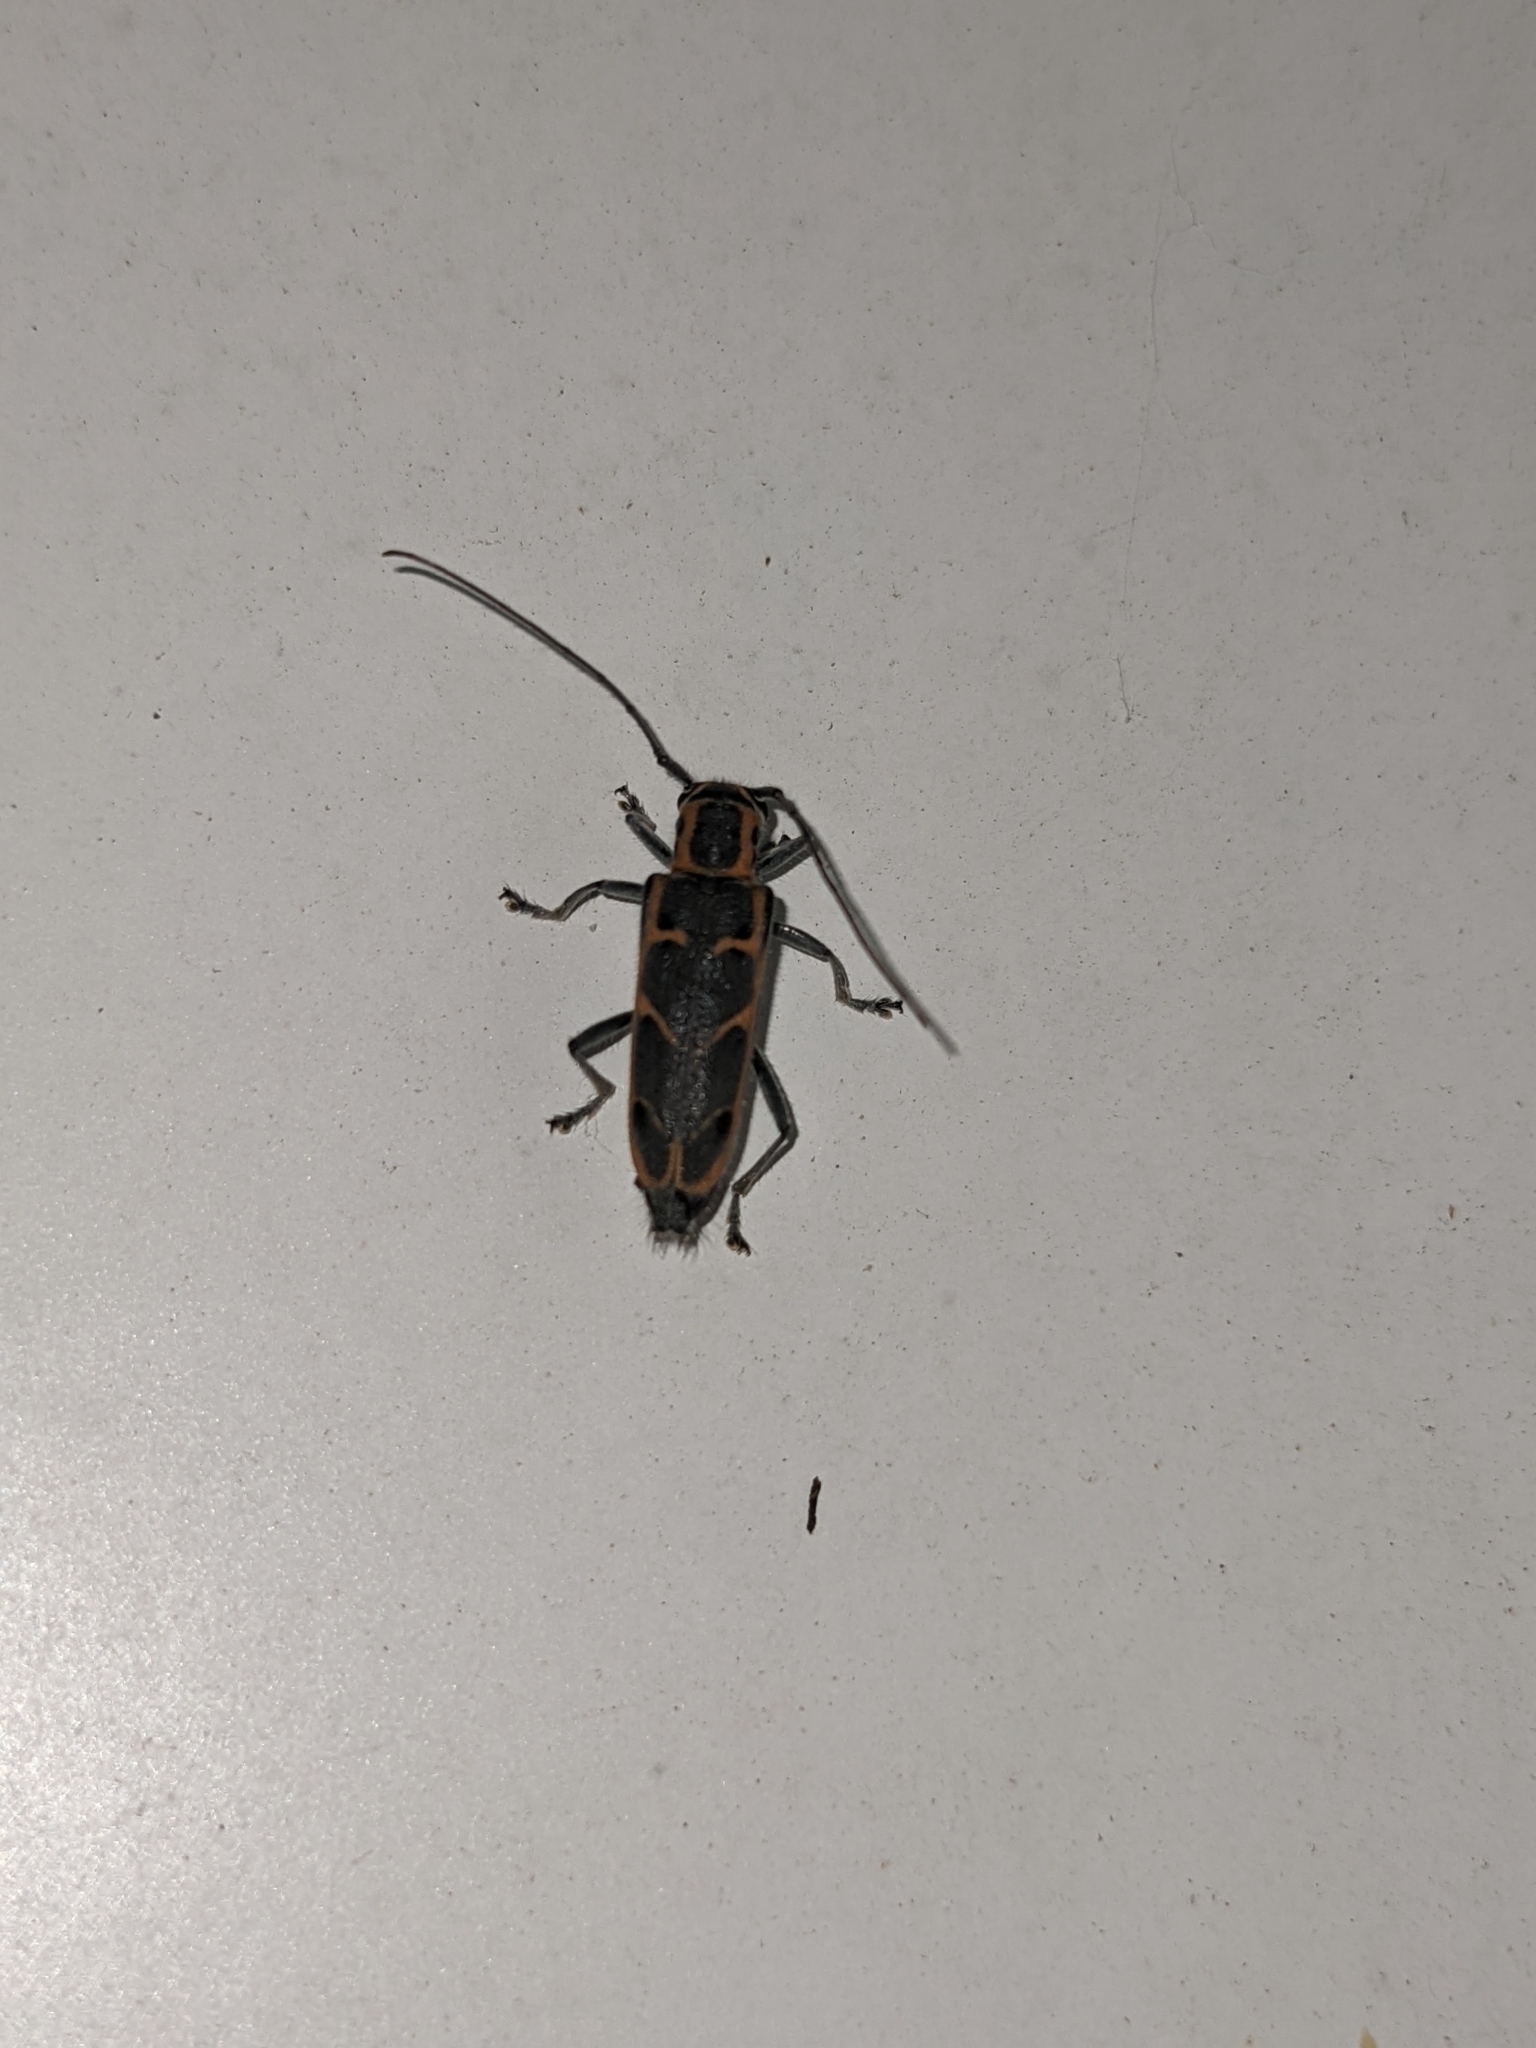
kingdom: Animalia
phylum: Arthropoda
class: Insecta
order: Coleoptera
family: Cerambycidae
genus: Saperda
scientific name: Saperda tridentata
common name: Elm borer
